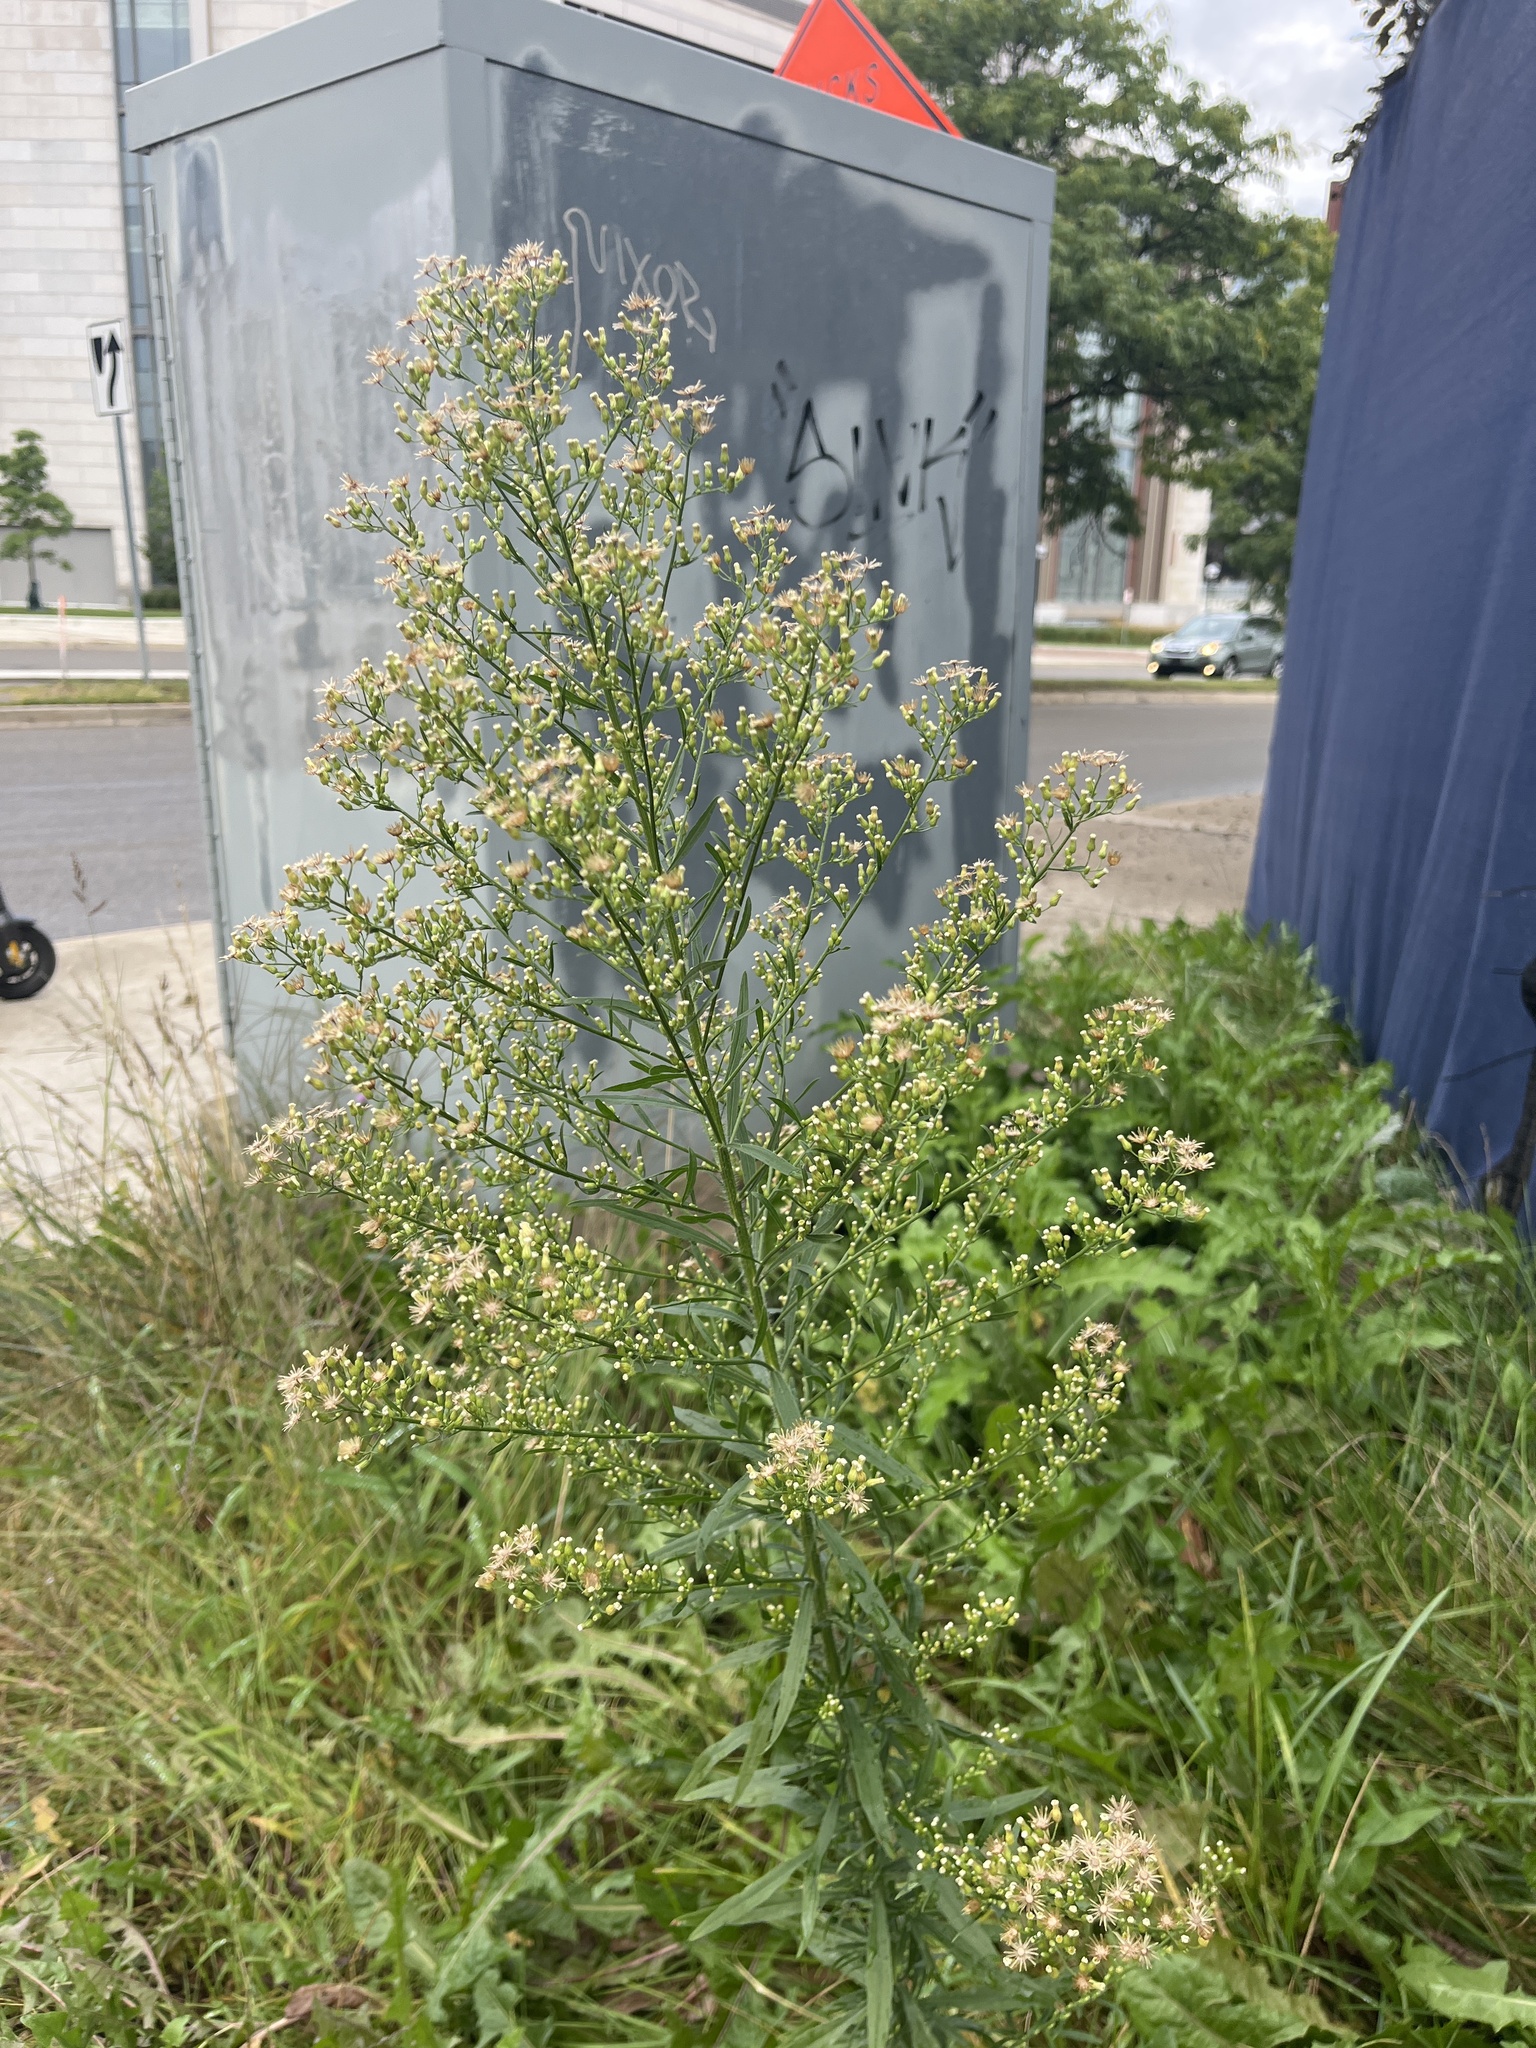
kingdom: Plantae
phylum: Tracheophyta
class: Magnoliopsida
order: Asterales
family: Asteraceae
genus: Erigeron
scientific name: Erigeron canadensis
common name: Canadian fleabane
